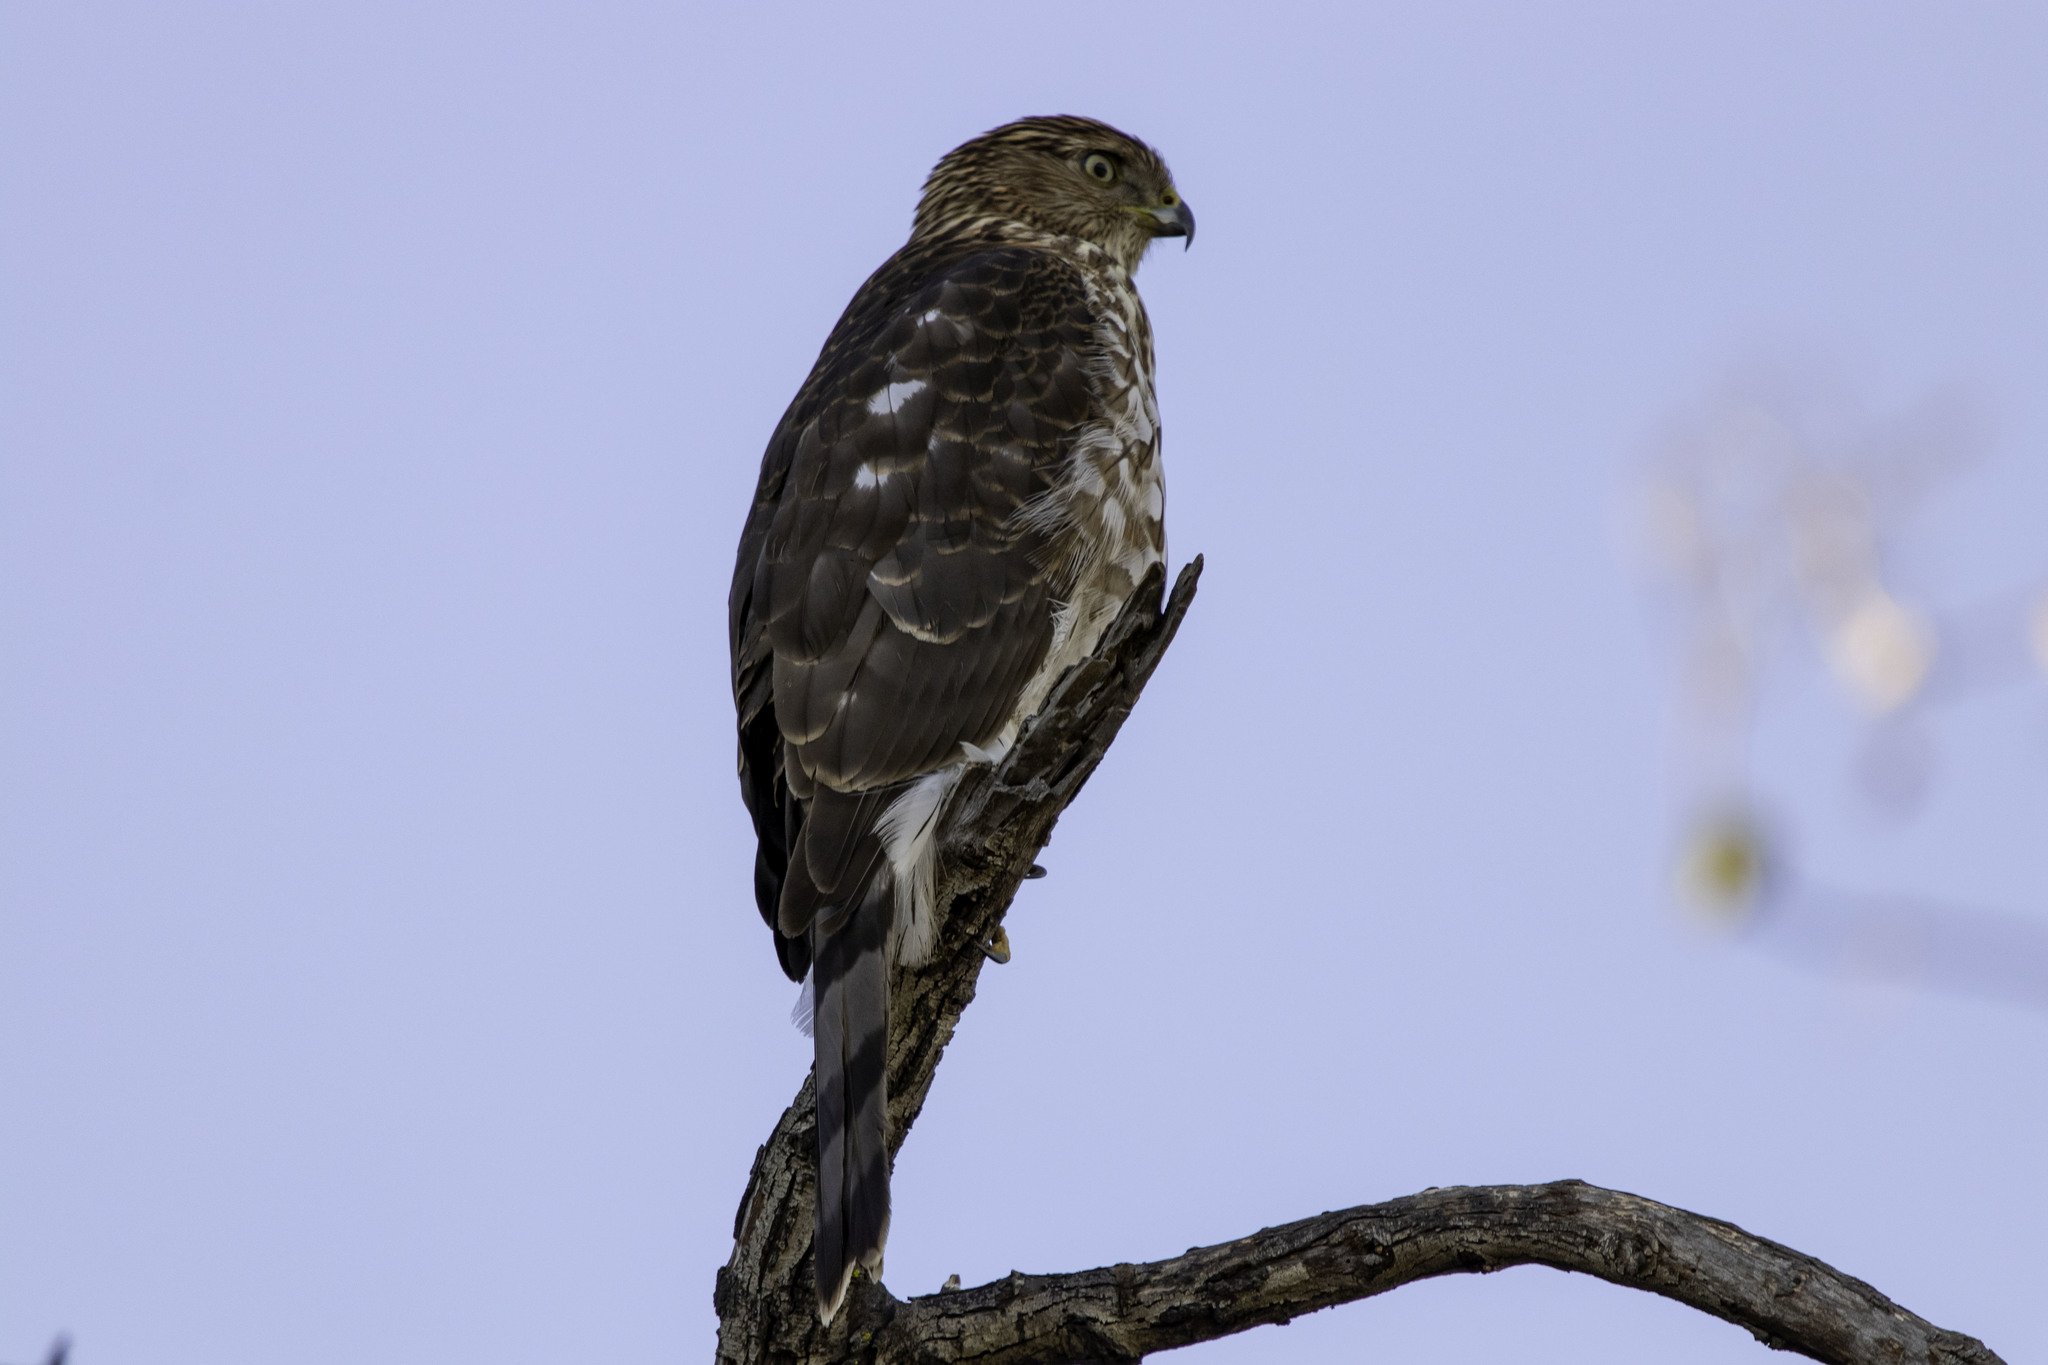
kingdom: Animalia
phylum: Chordata
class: Aves
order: Accipitriformes
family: Accipitridae
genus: Accipiter
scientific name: Accipiter cooperii
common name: Cooper's hawk
